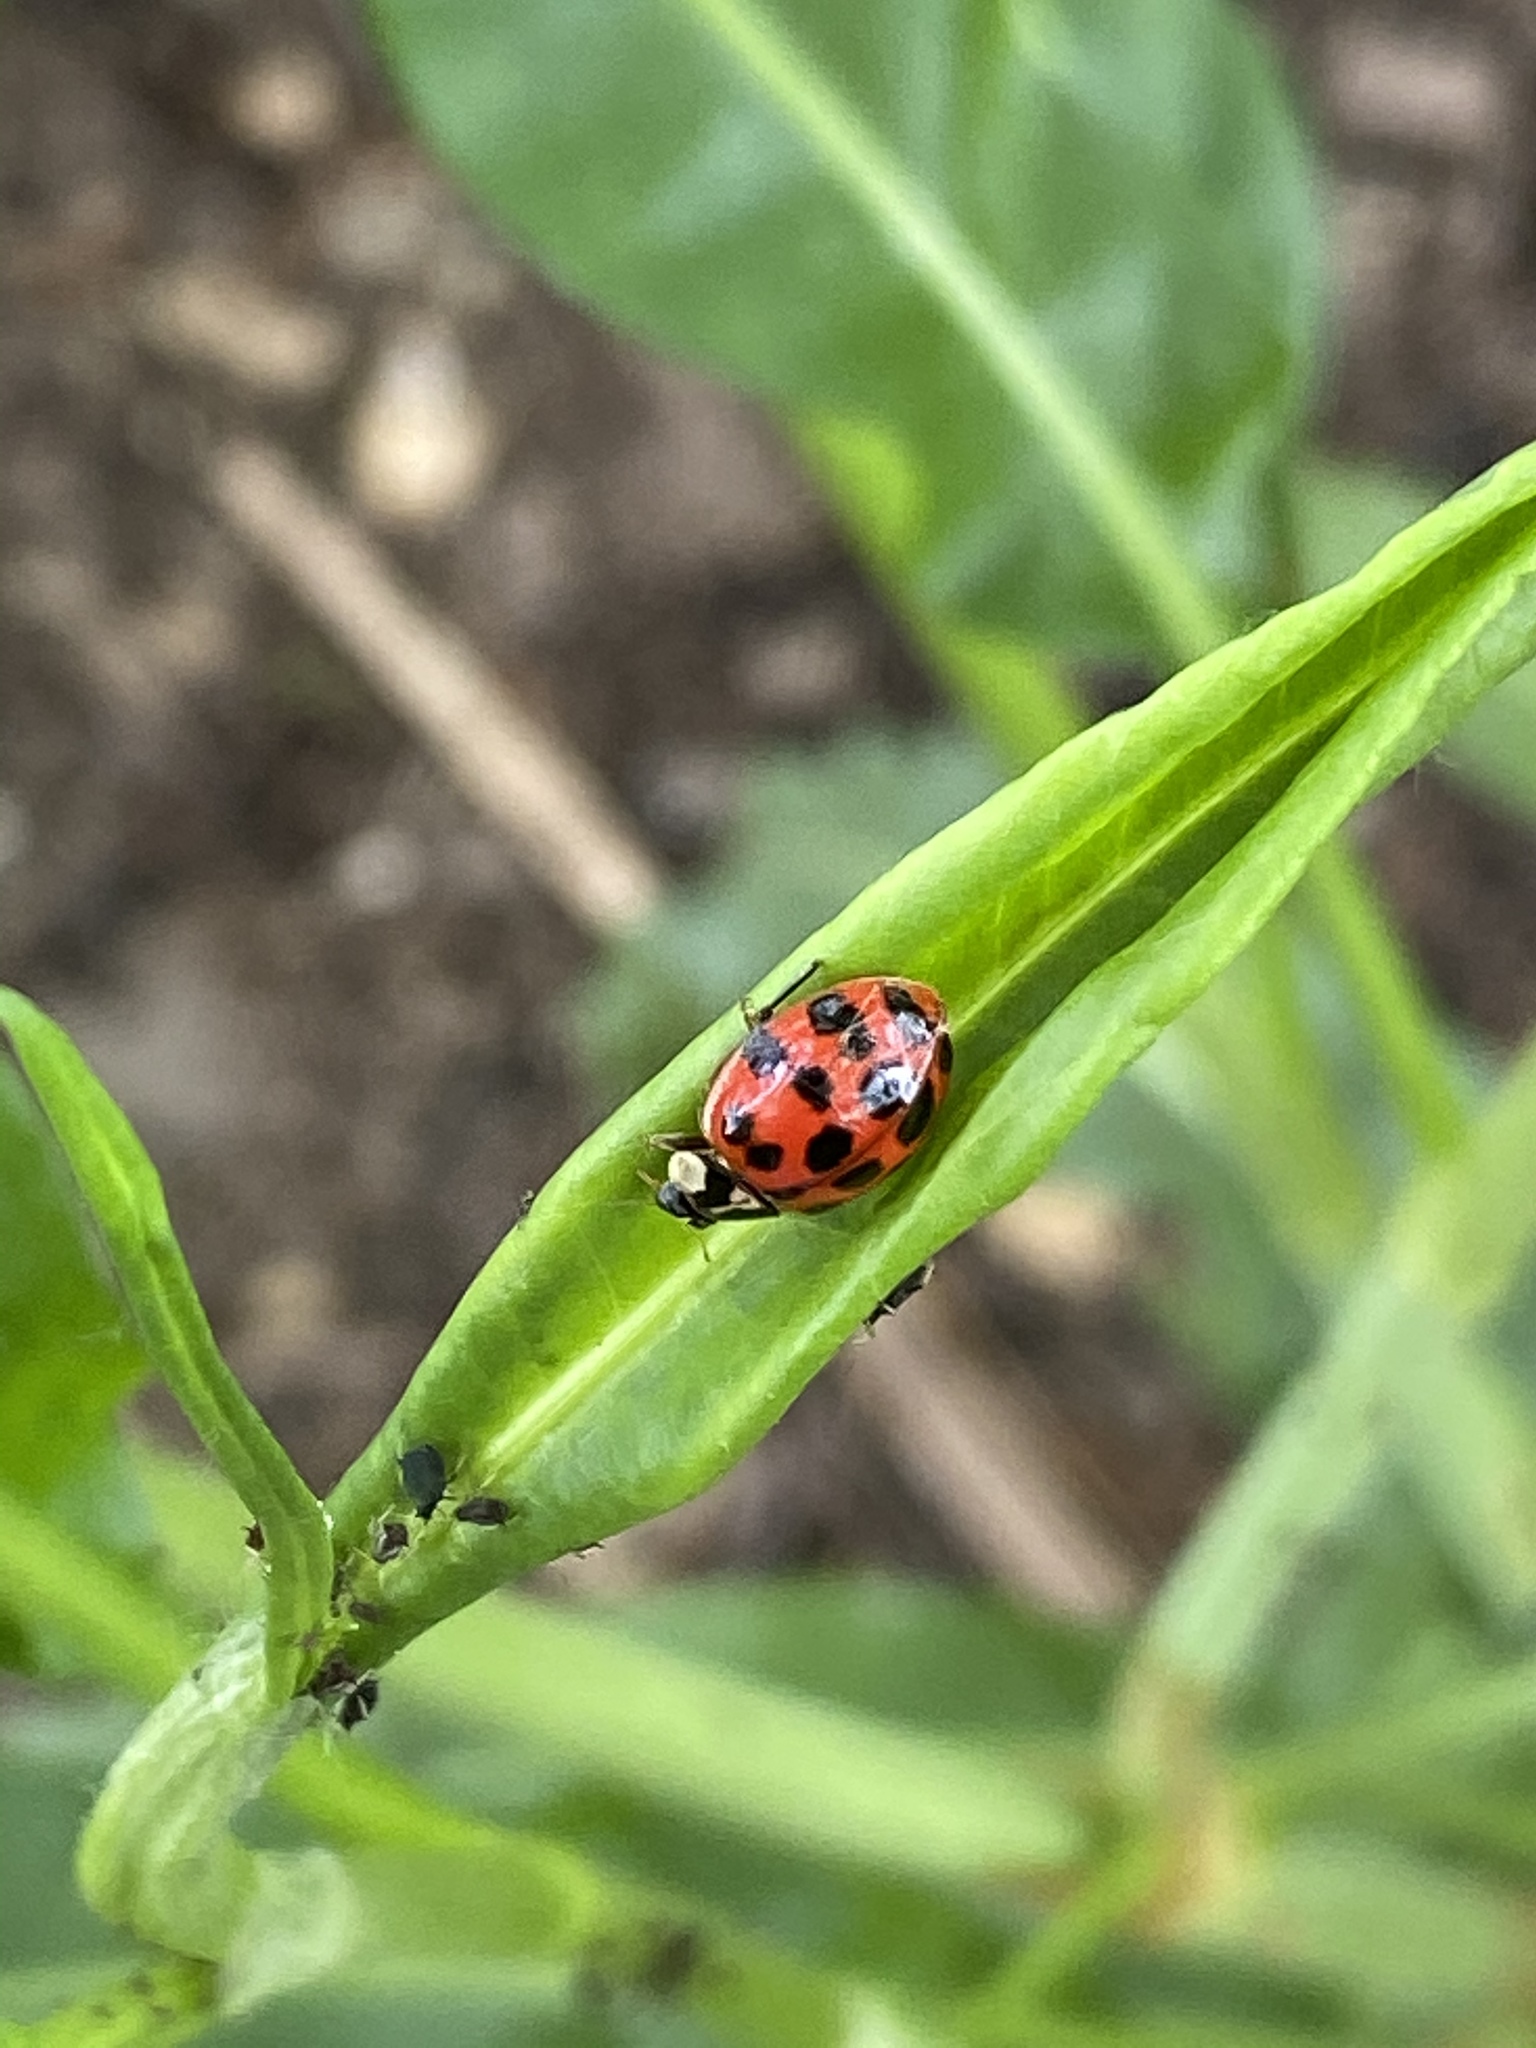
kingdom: Animalia
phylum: Arthropoda
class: Insecta
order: Coleoptera
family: Coccinellidae
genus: Harmonia
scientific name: Harmonia axyridis
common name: Harlequin ladybird
